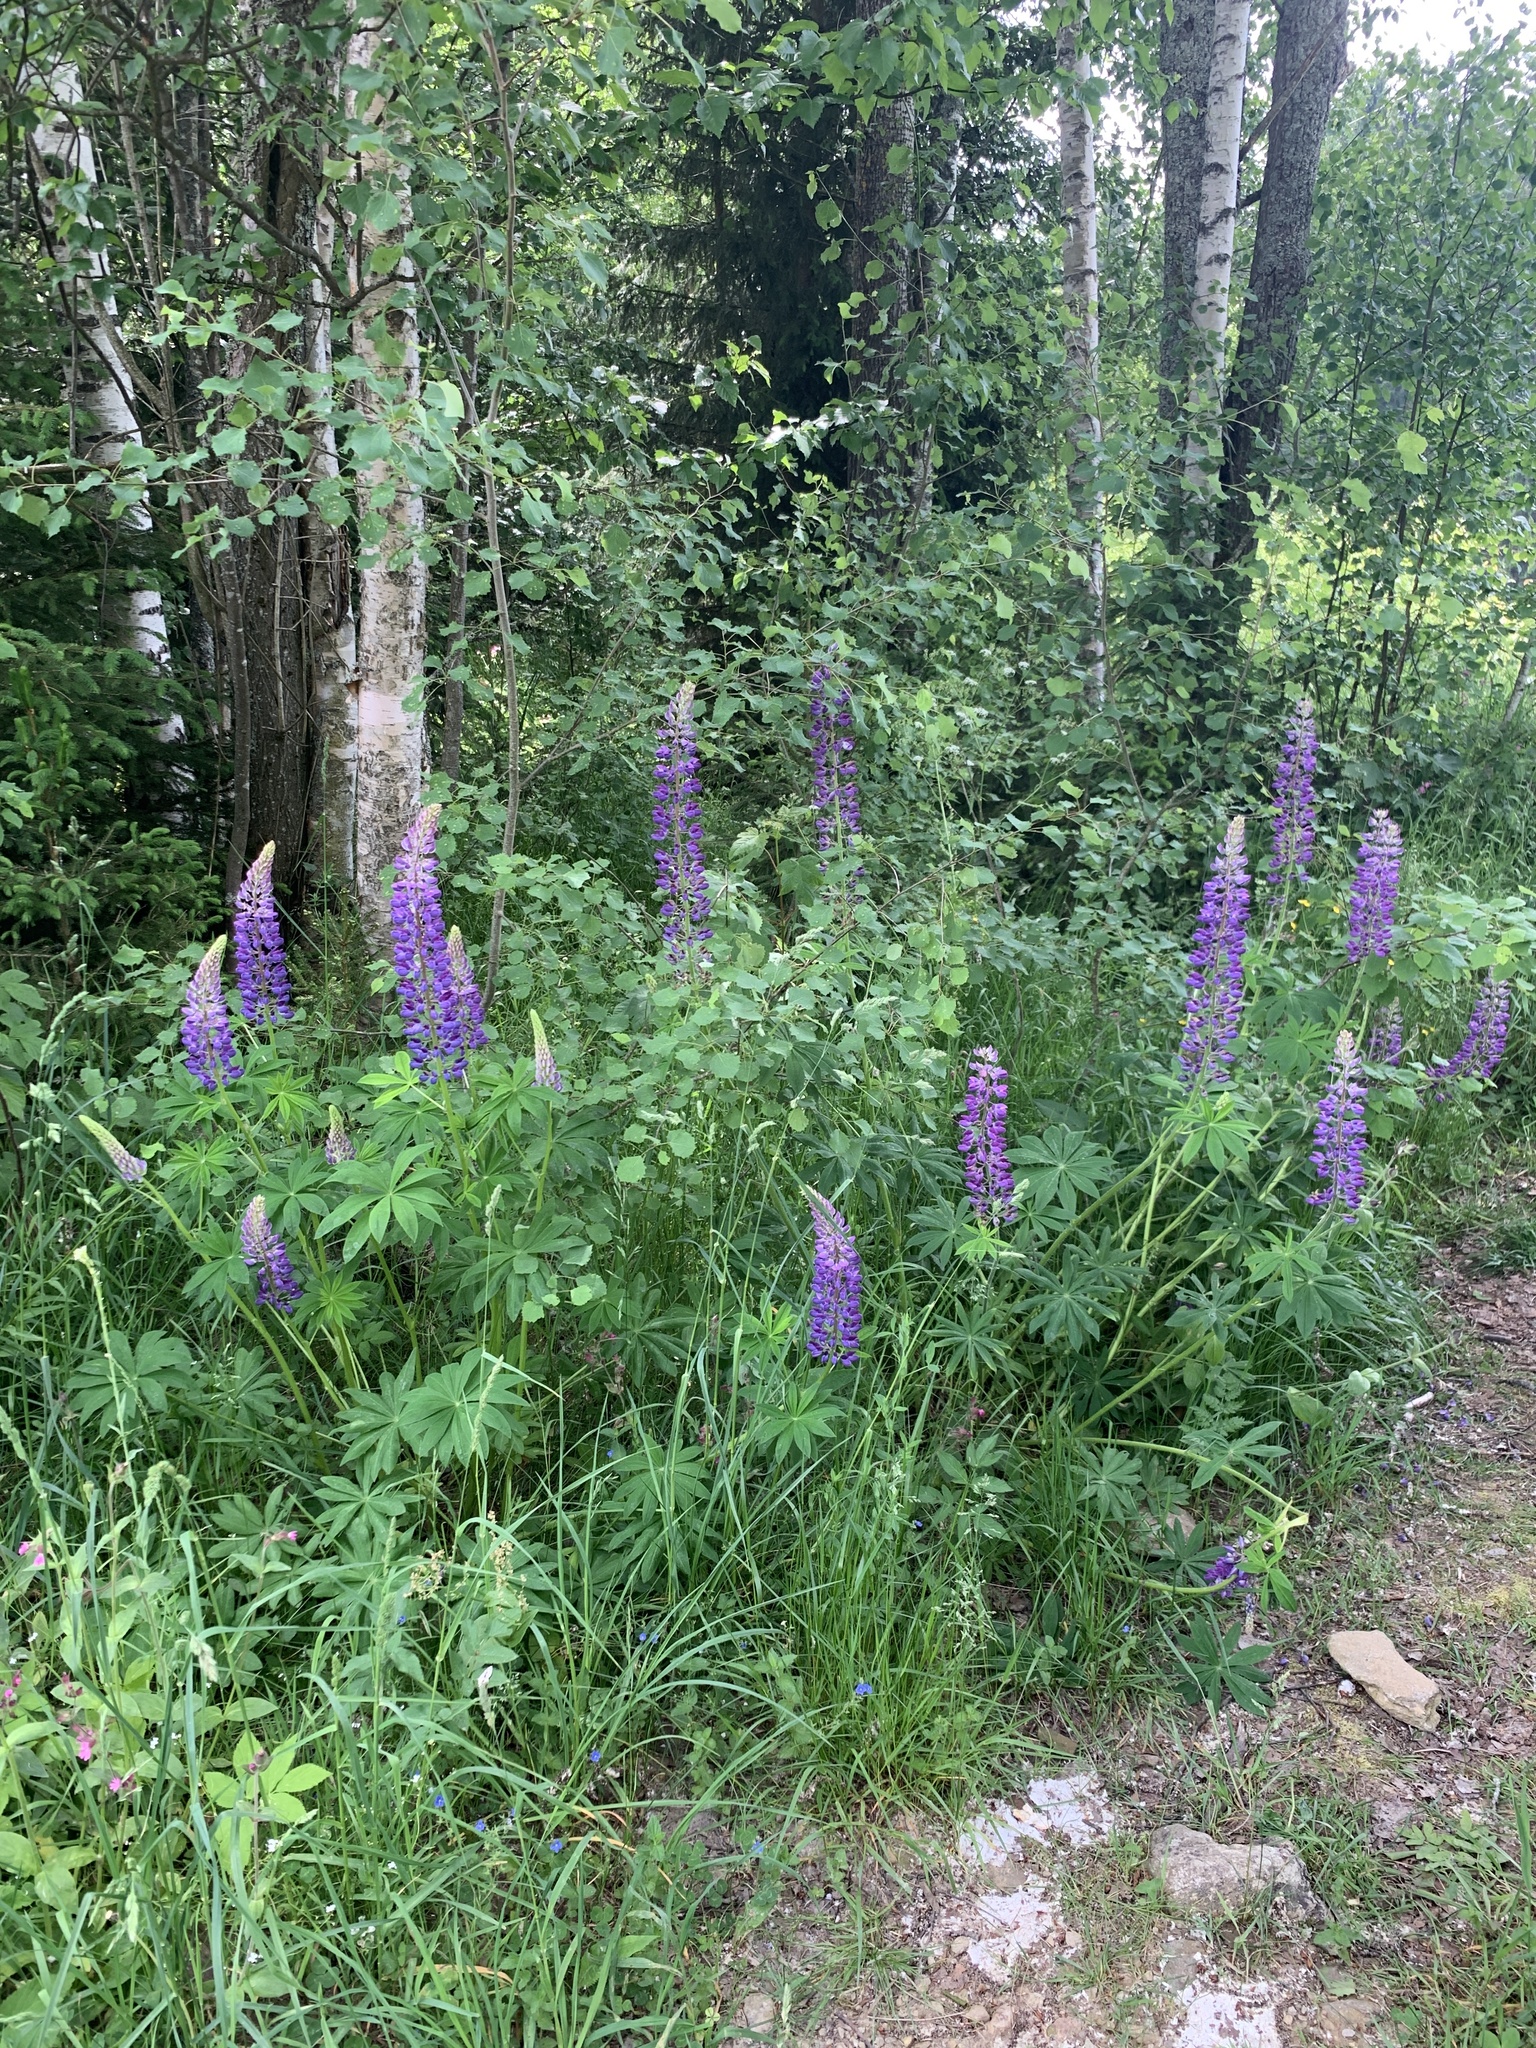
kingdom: Plantae
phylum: Tracheophyta
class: Magnoliopsida
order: Fabales
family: Fabaceae
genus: Lupinus
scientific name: Lupinus polyphyllus
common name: Garden lupin
